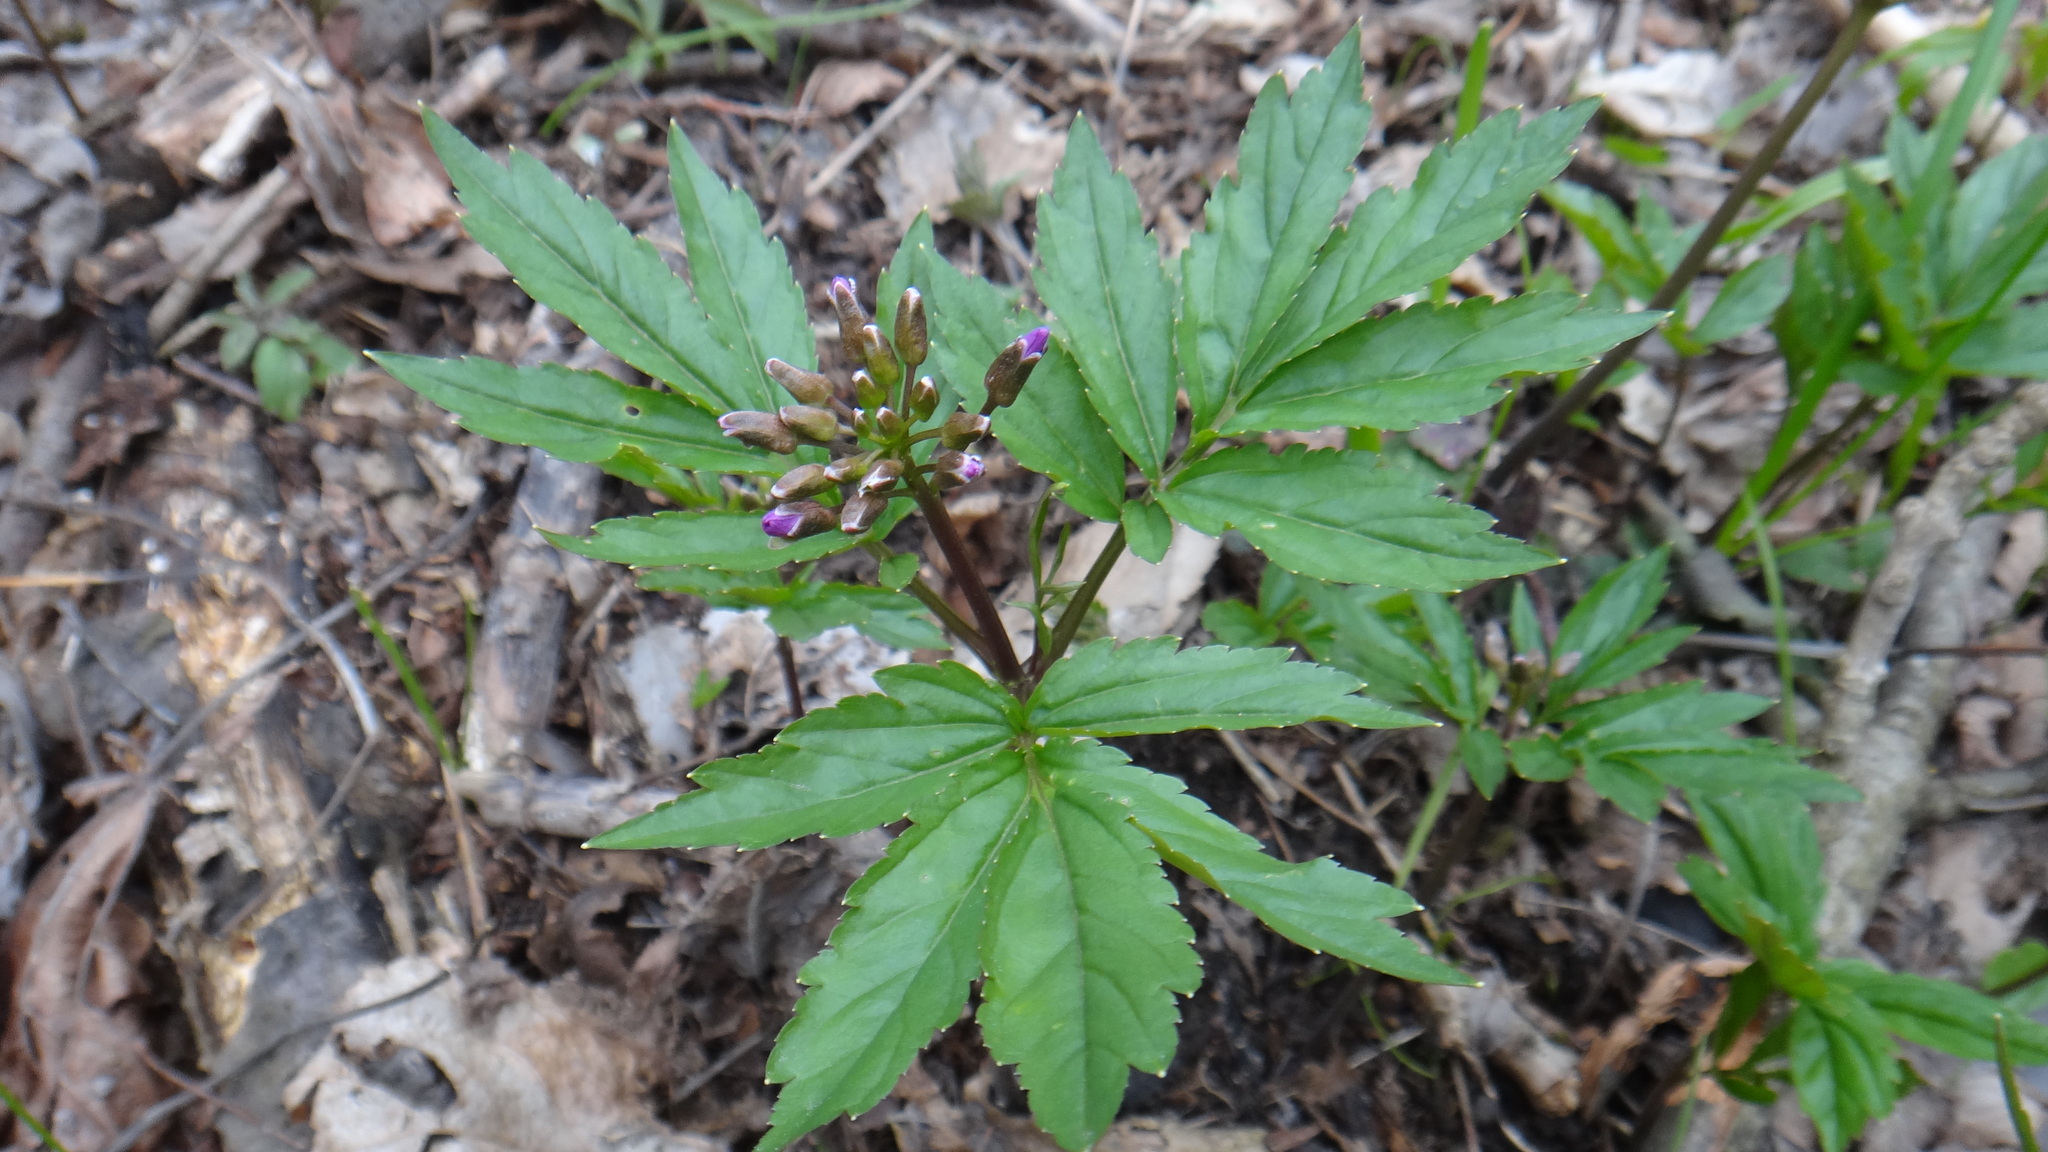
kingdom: Plantae
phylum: Tracheophyta
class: Magnoliopsida
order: Brassicales
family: Brassicaceae
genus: Cardamine
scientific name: Cardamine quinquefolia
